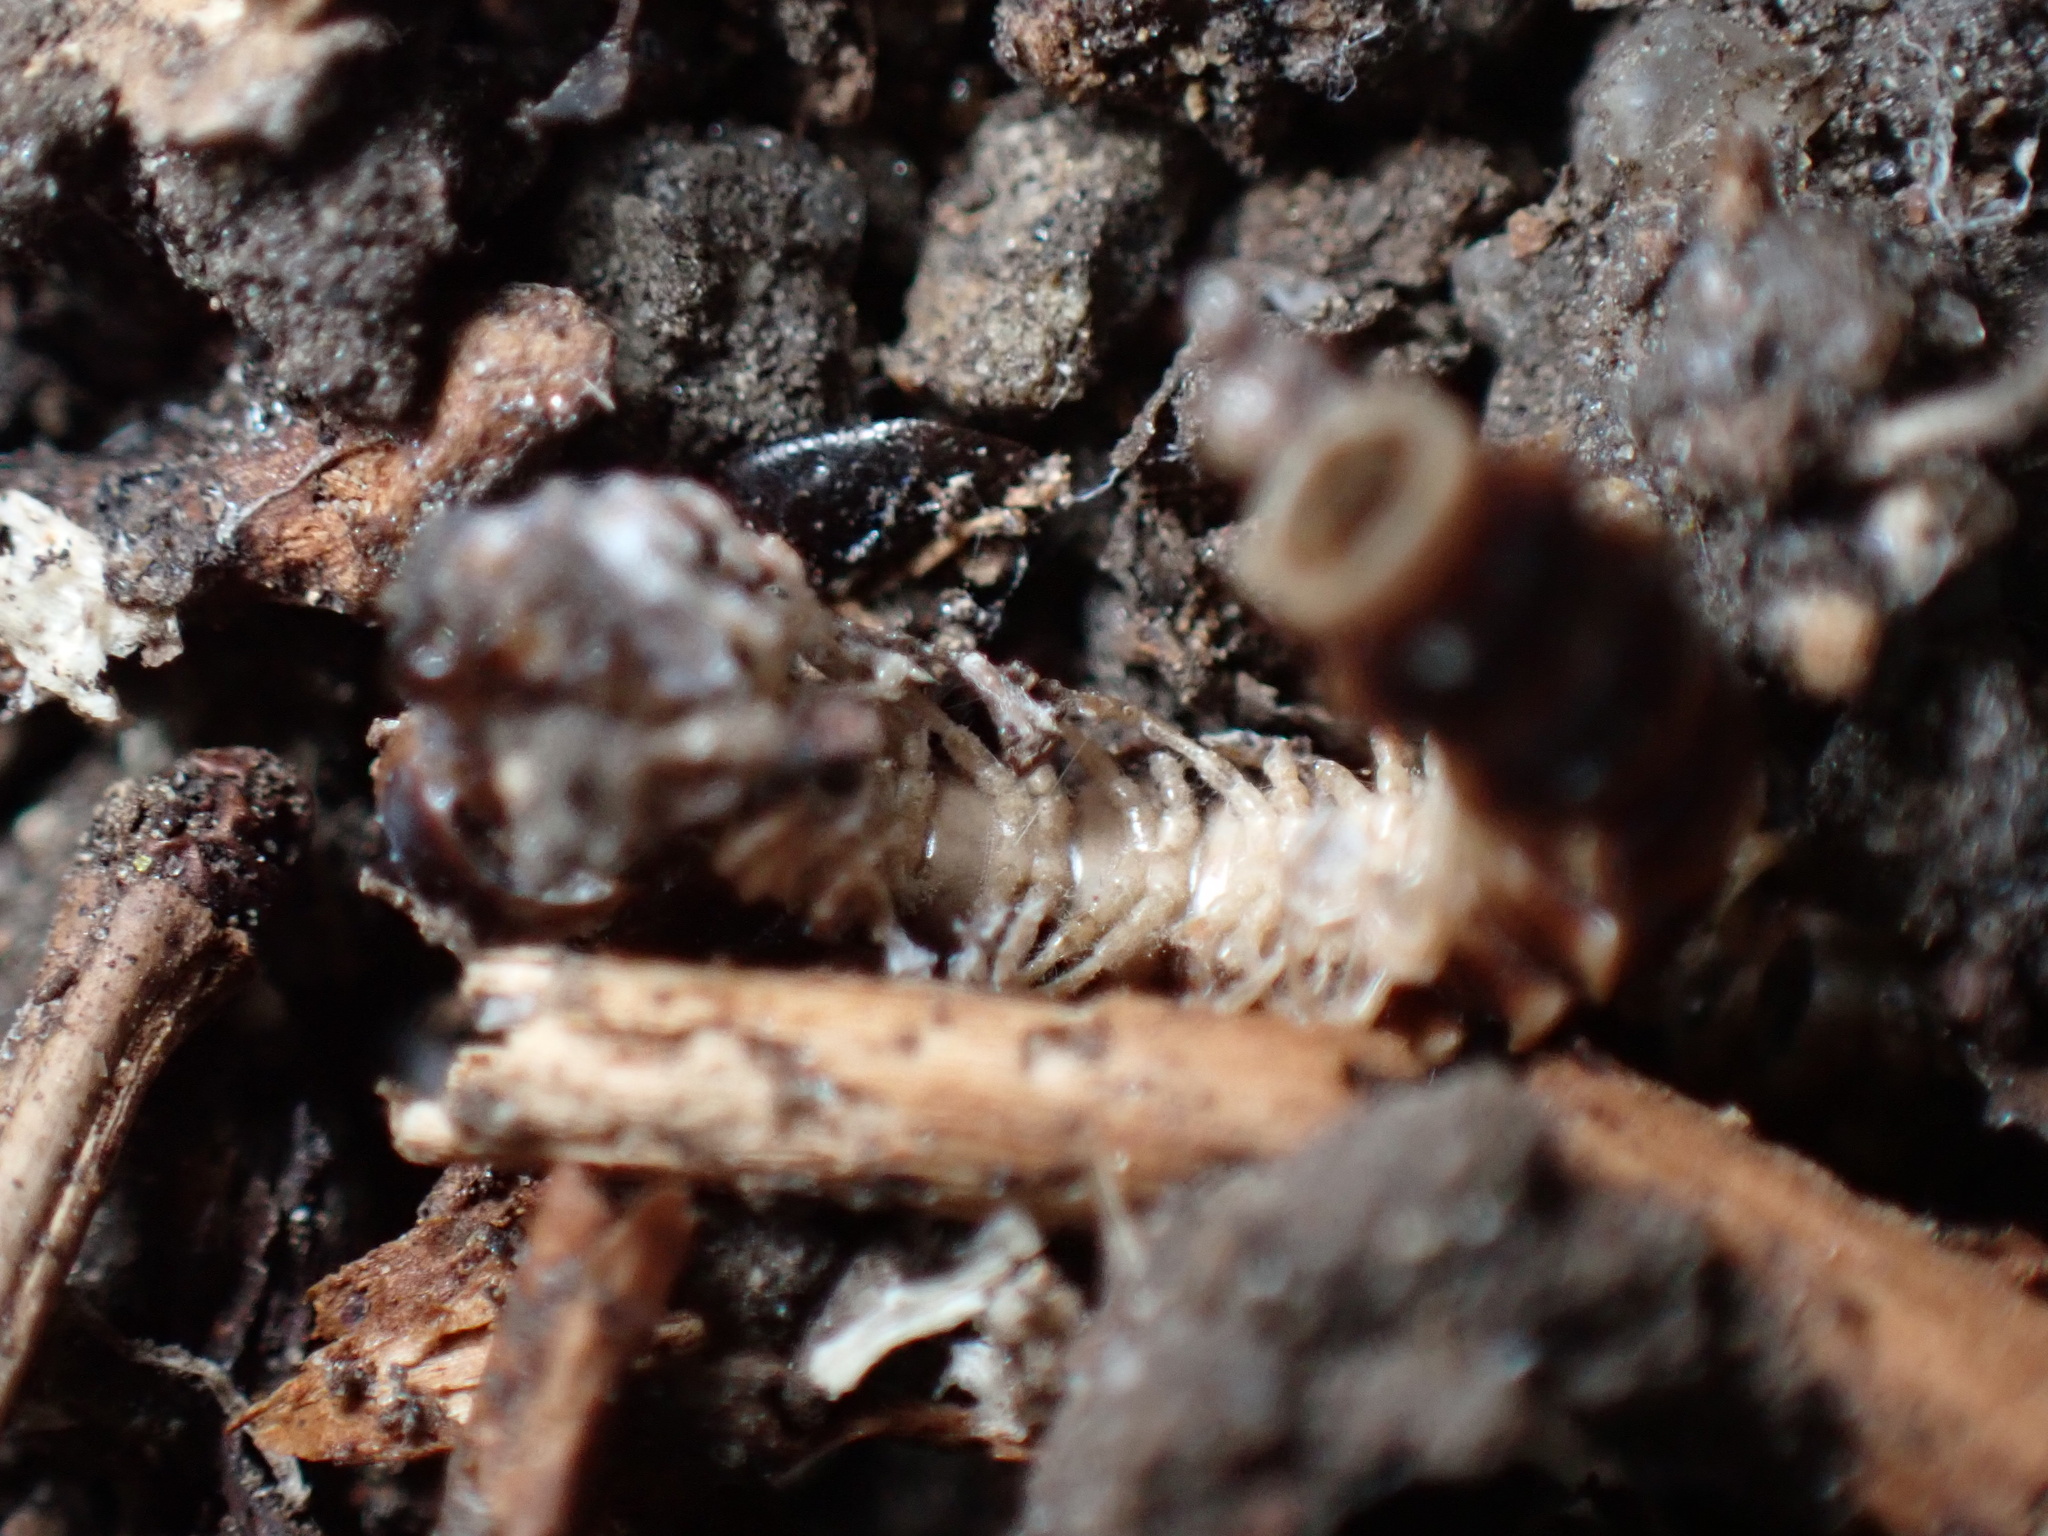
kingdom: Animalia
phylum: Arthropoda
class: Diplopoda
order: Polydesmida
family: Paradoxosomatidae
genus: Oxidus
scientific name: Oxidus gracilis
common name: Greenhouse millipede
